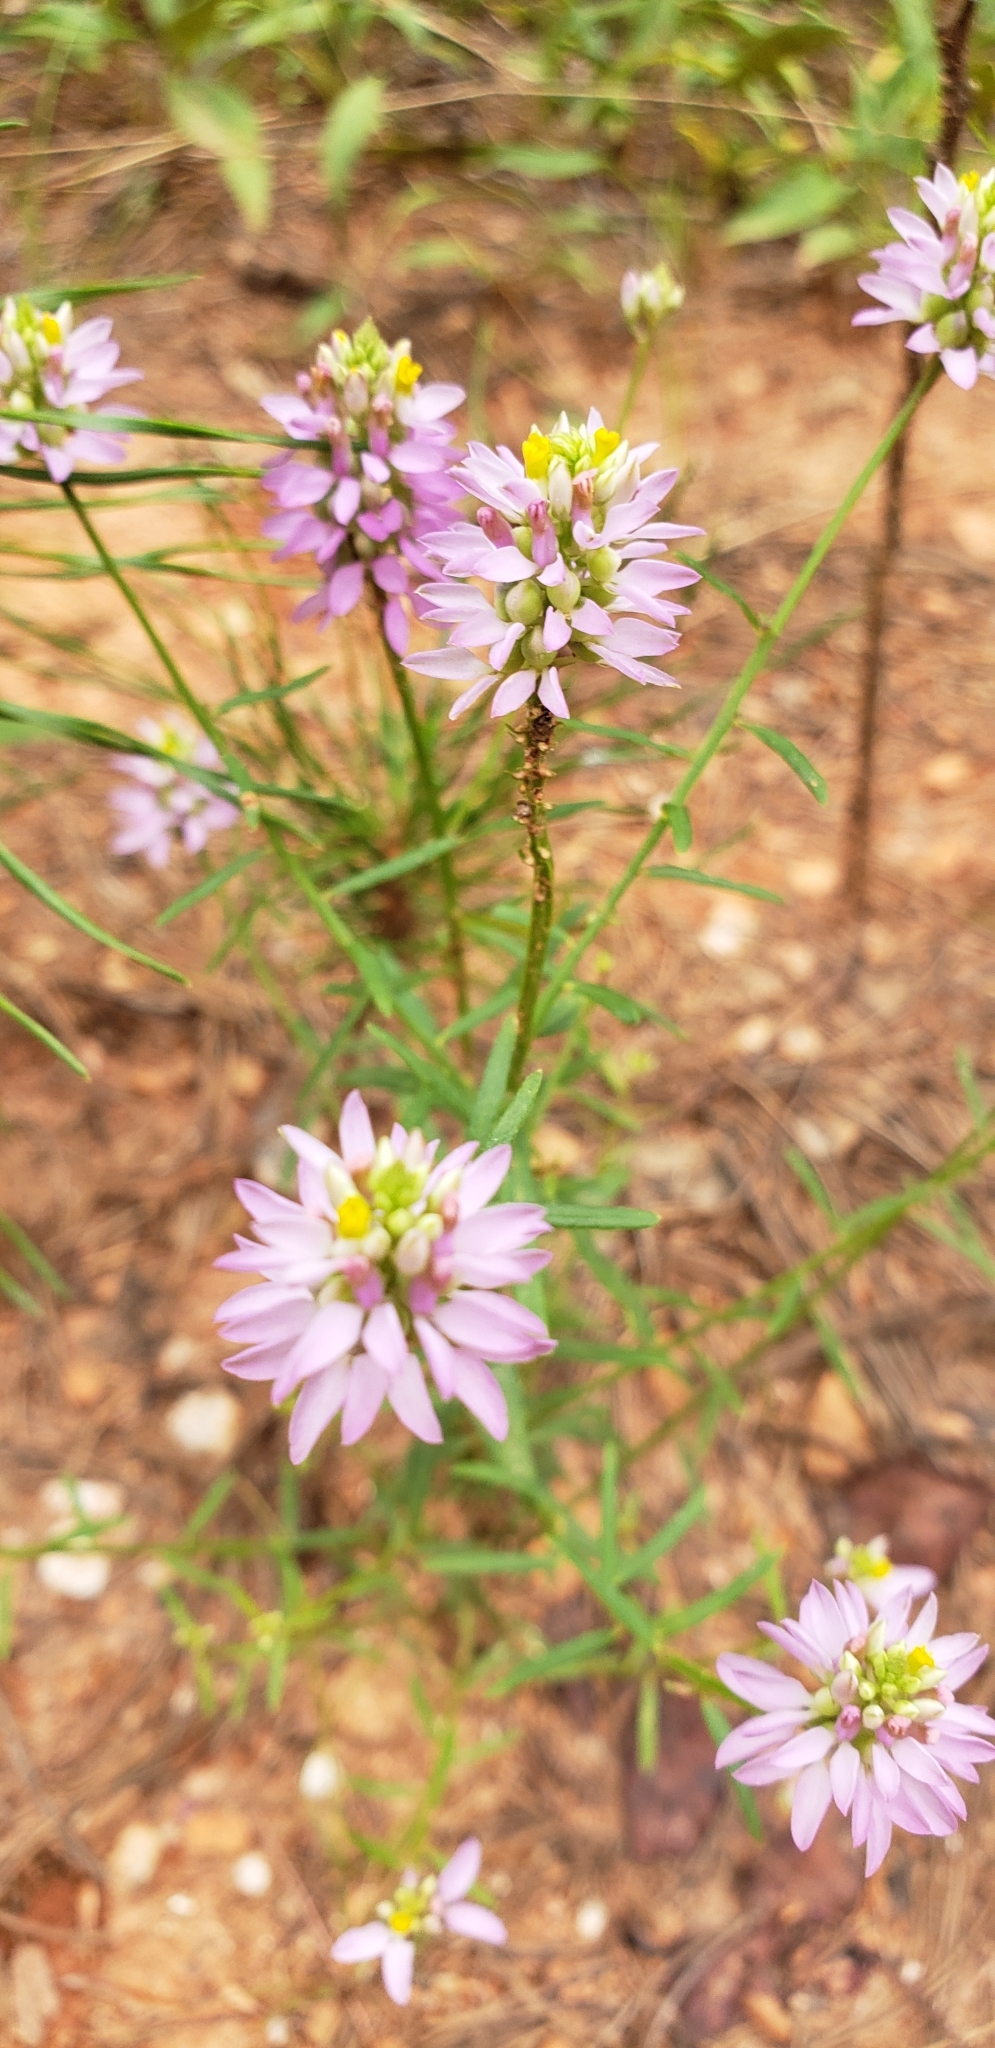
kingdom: Plantae
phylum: Tracheophyta
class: Magnoliopsida
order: Fabales
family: Polygalaceae
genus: Polygala
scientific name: Polygala curtissii
